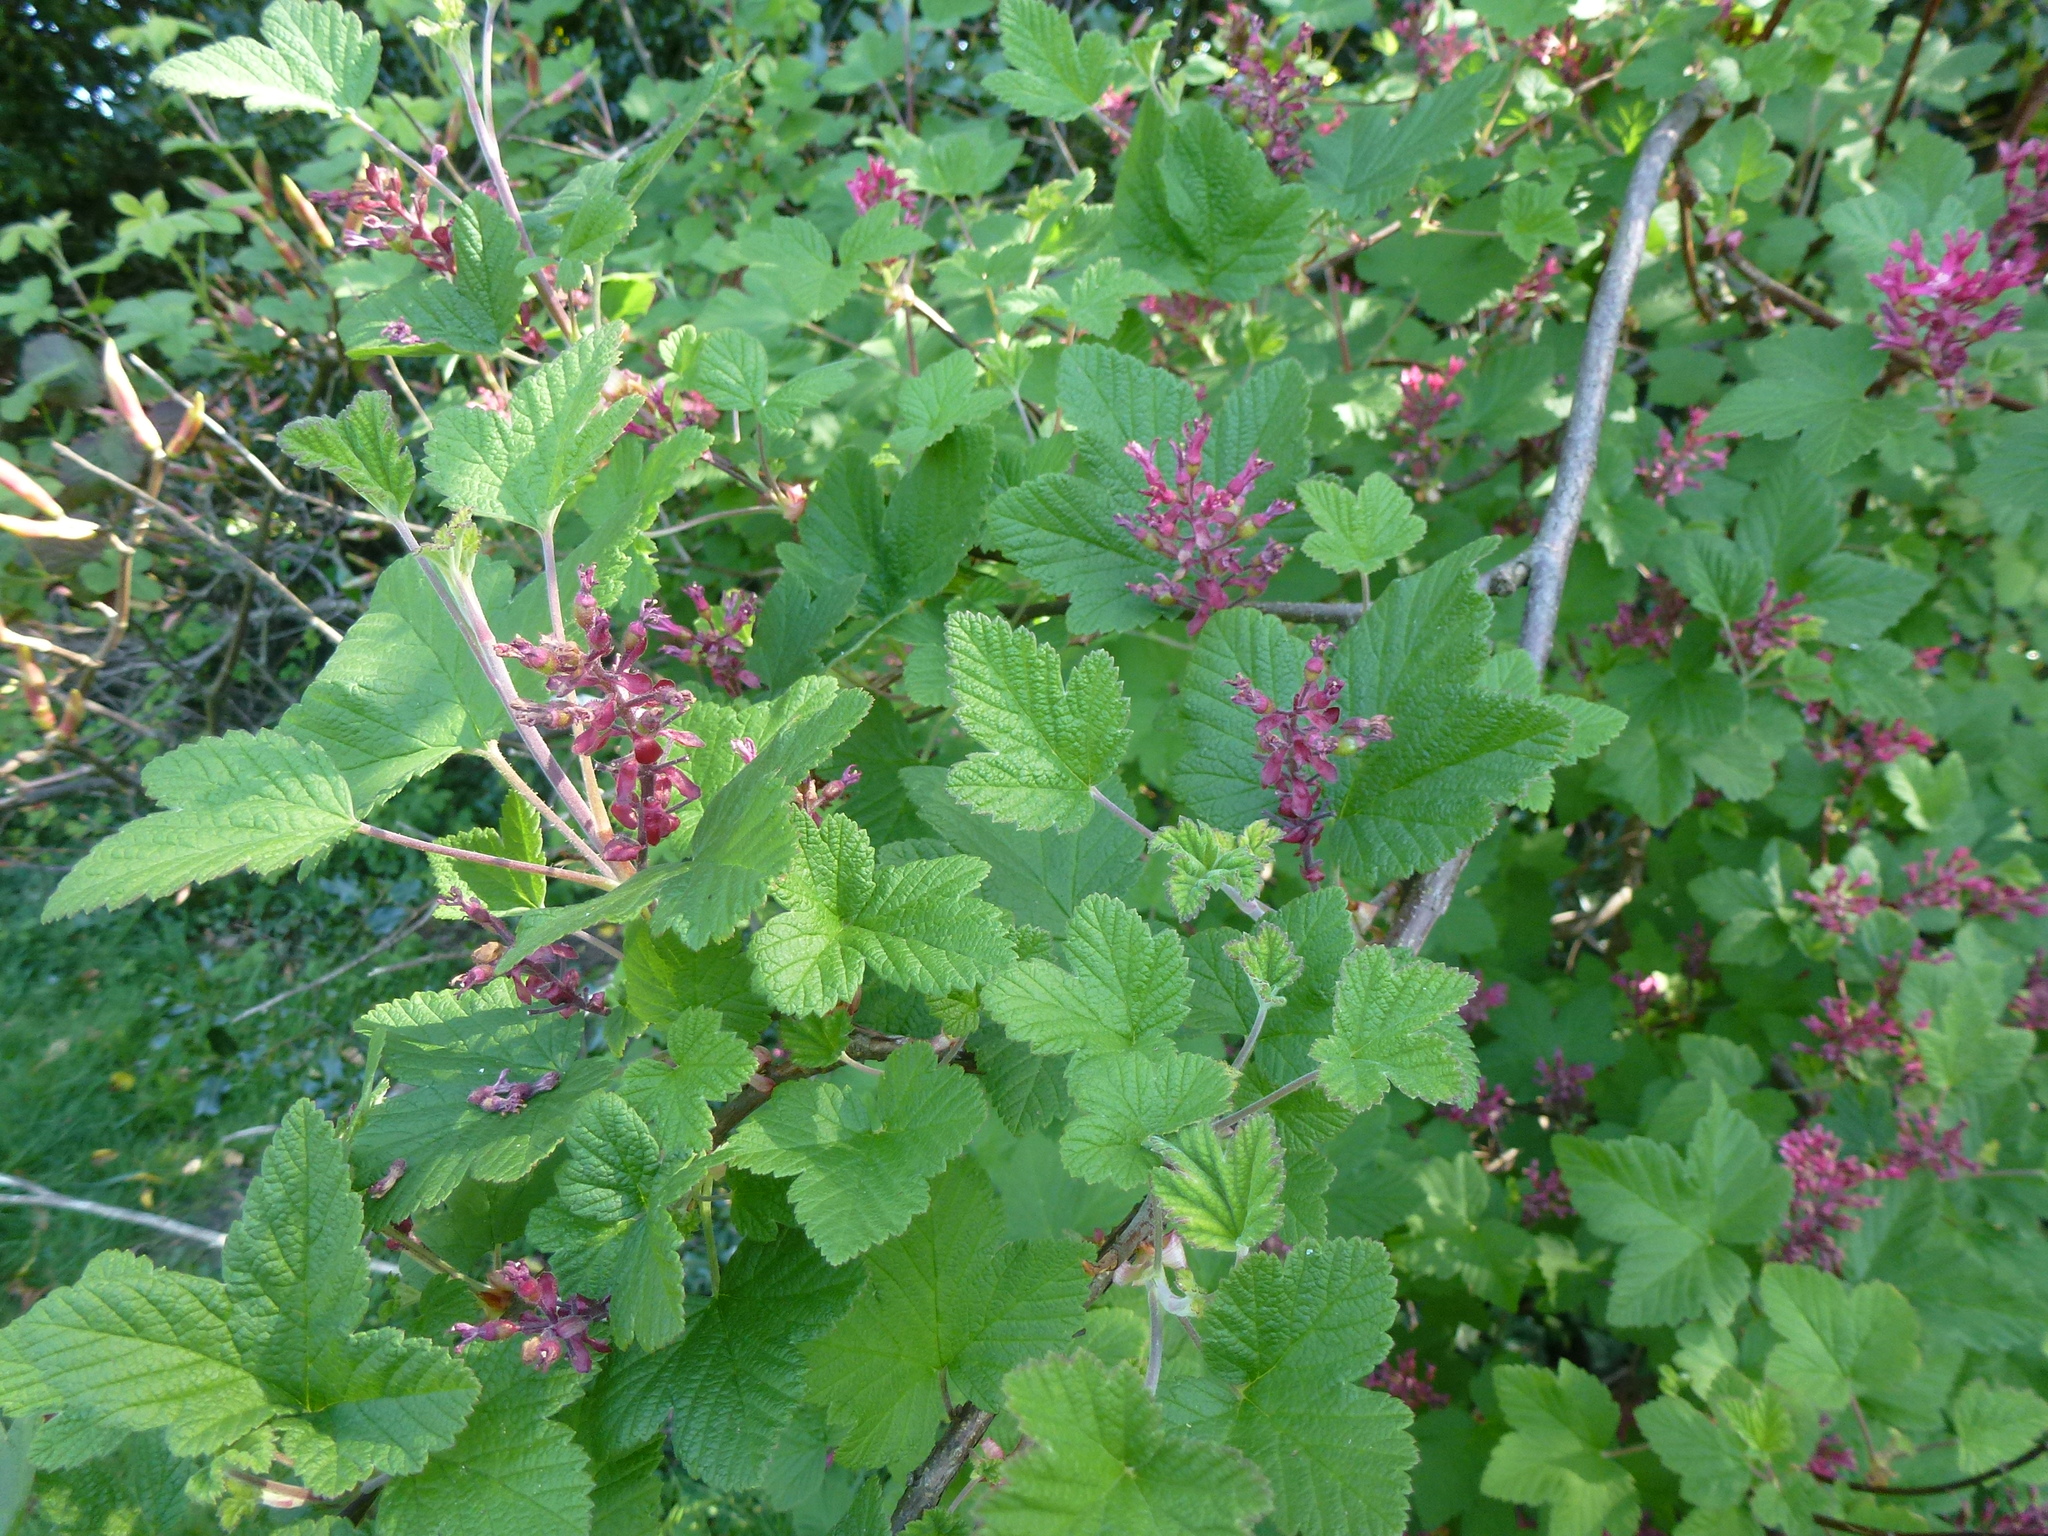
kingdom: Plantae
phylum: Tracheophyta
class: Magnoliopsida
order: Saxifragales
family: Grossulariaceae
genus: Ribes
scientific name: Ribes sanguineum
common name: Flowering currant
